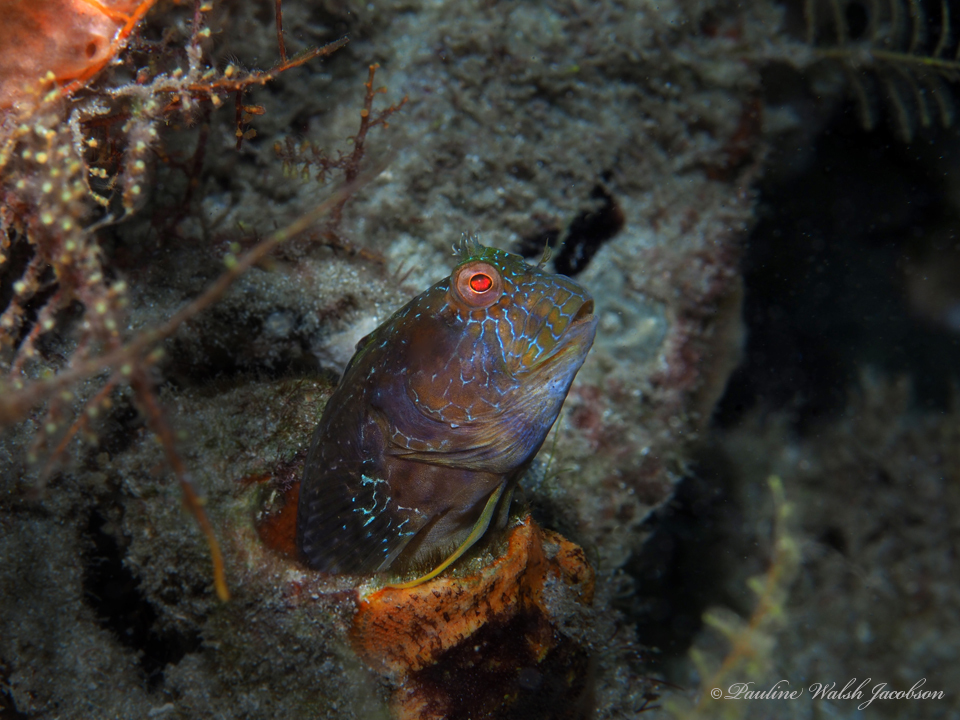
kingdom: Animalia
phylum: Chordata
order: Perciformes
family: Blenniidae
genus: Parablennius
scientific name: Parablennius marmoreus
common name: Seaweed blenny
